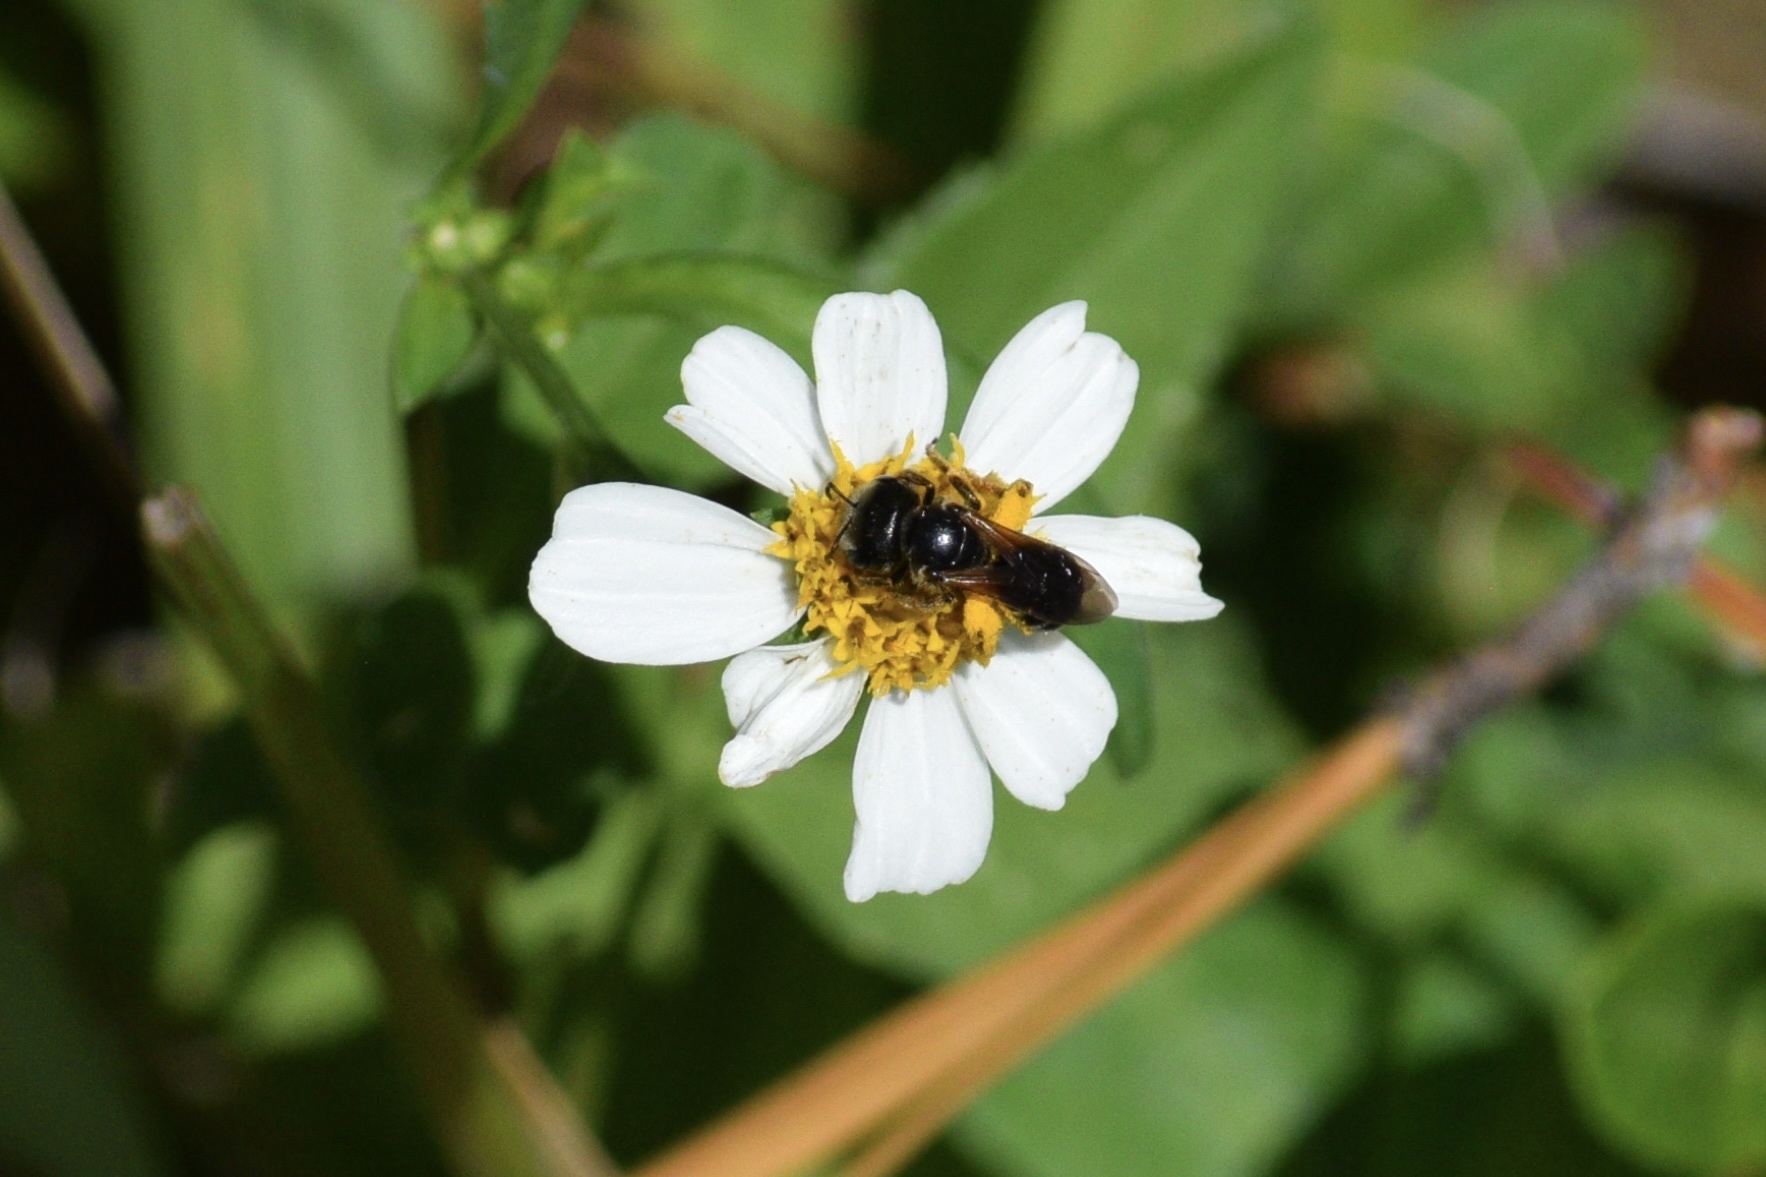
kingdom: Animalia
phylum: Arthropoda
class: Insecta
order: Hymenoptera
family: Halictidae
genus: Halictus
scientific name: Halictus poeyi
